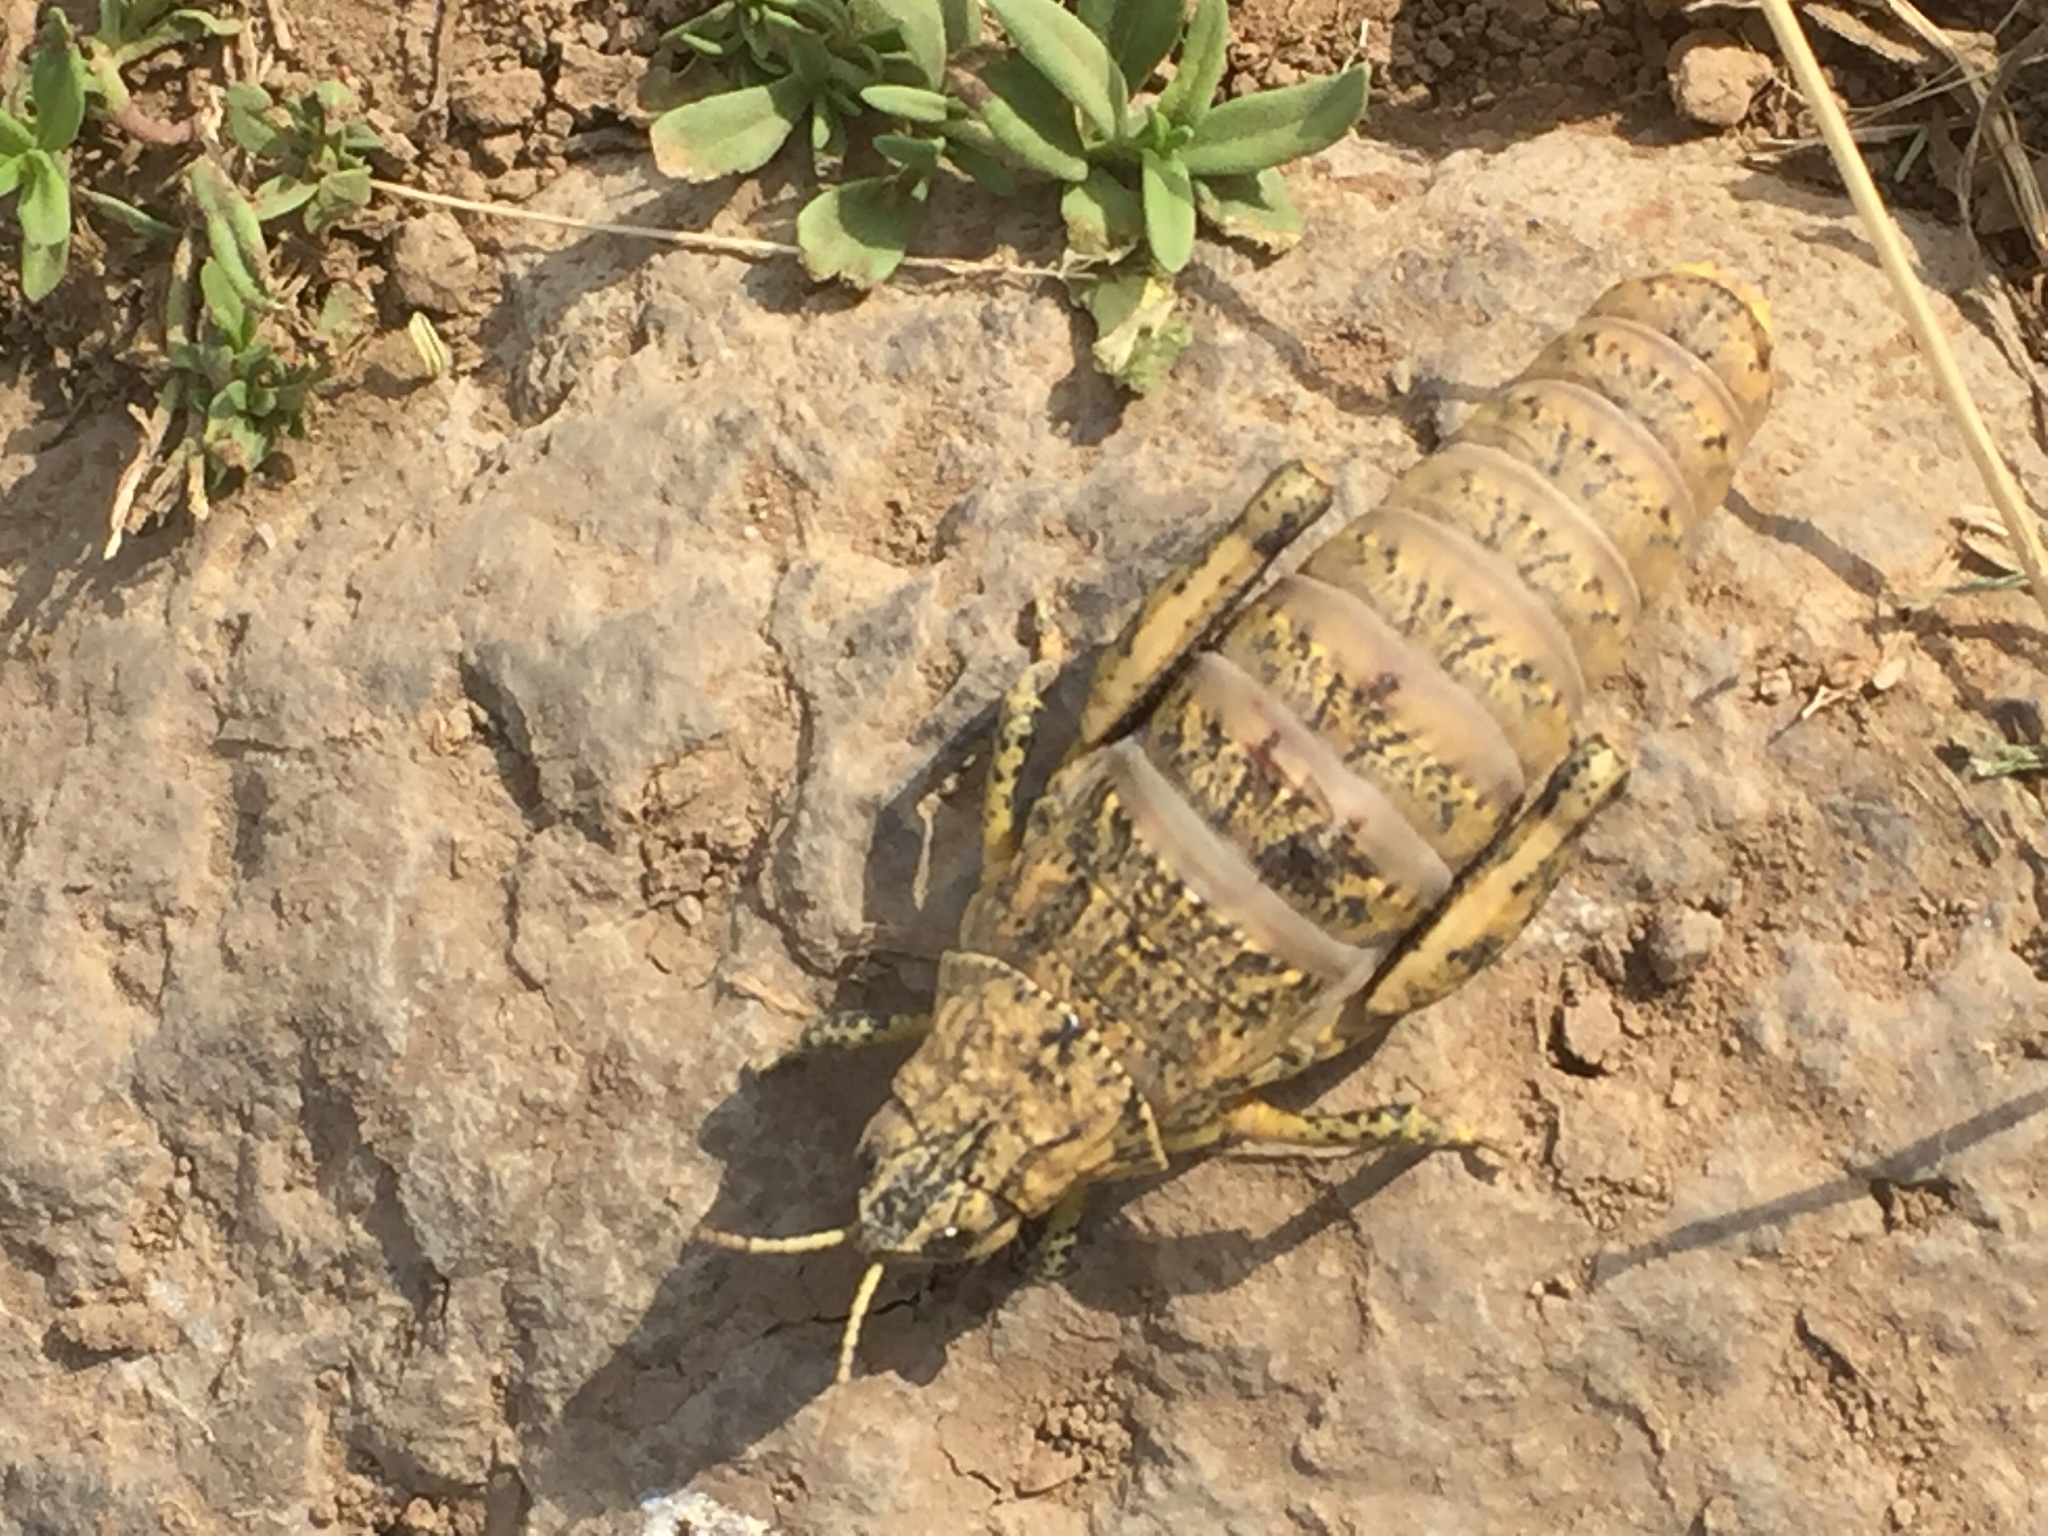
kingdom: Animalia
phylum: Arthropoda
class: Insecta
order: Orthoptera
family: Pamphagidae
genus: Nocaracris
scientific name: Nocaracris rubripes
